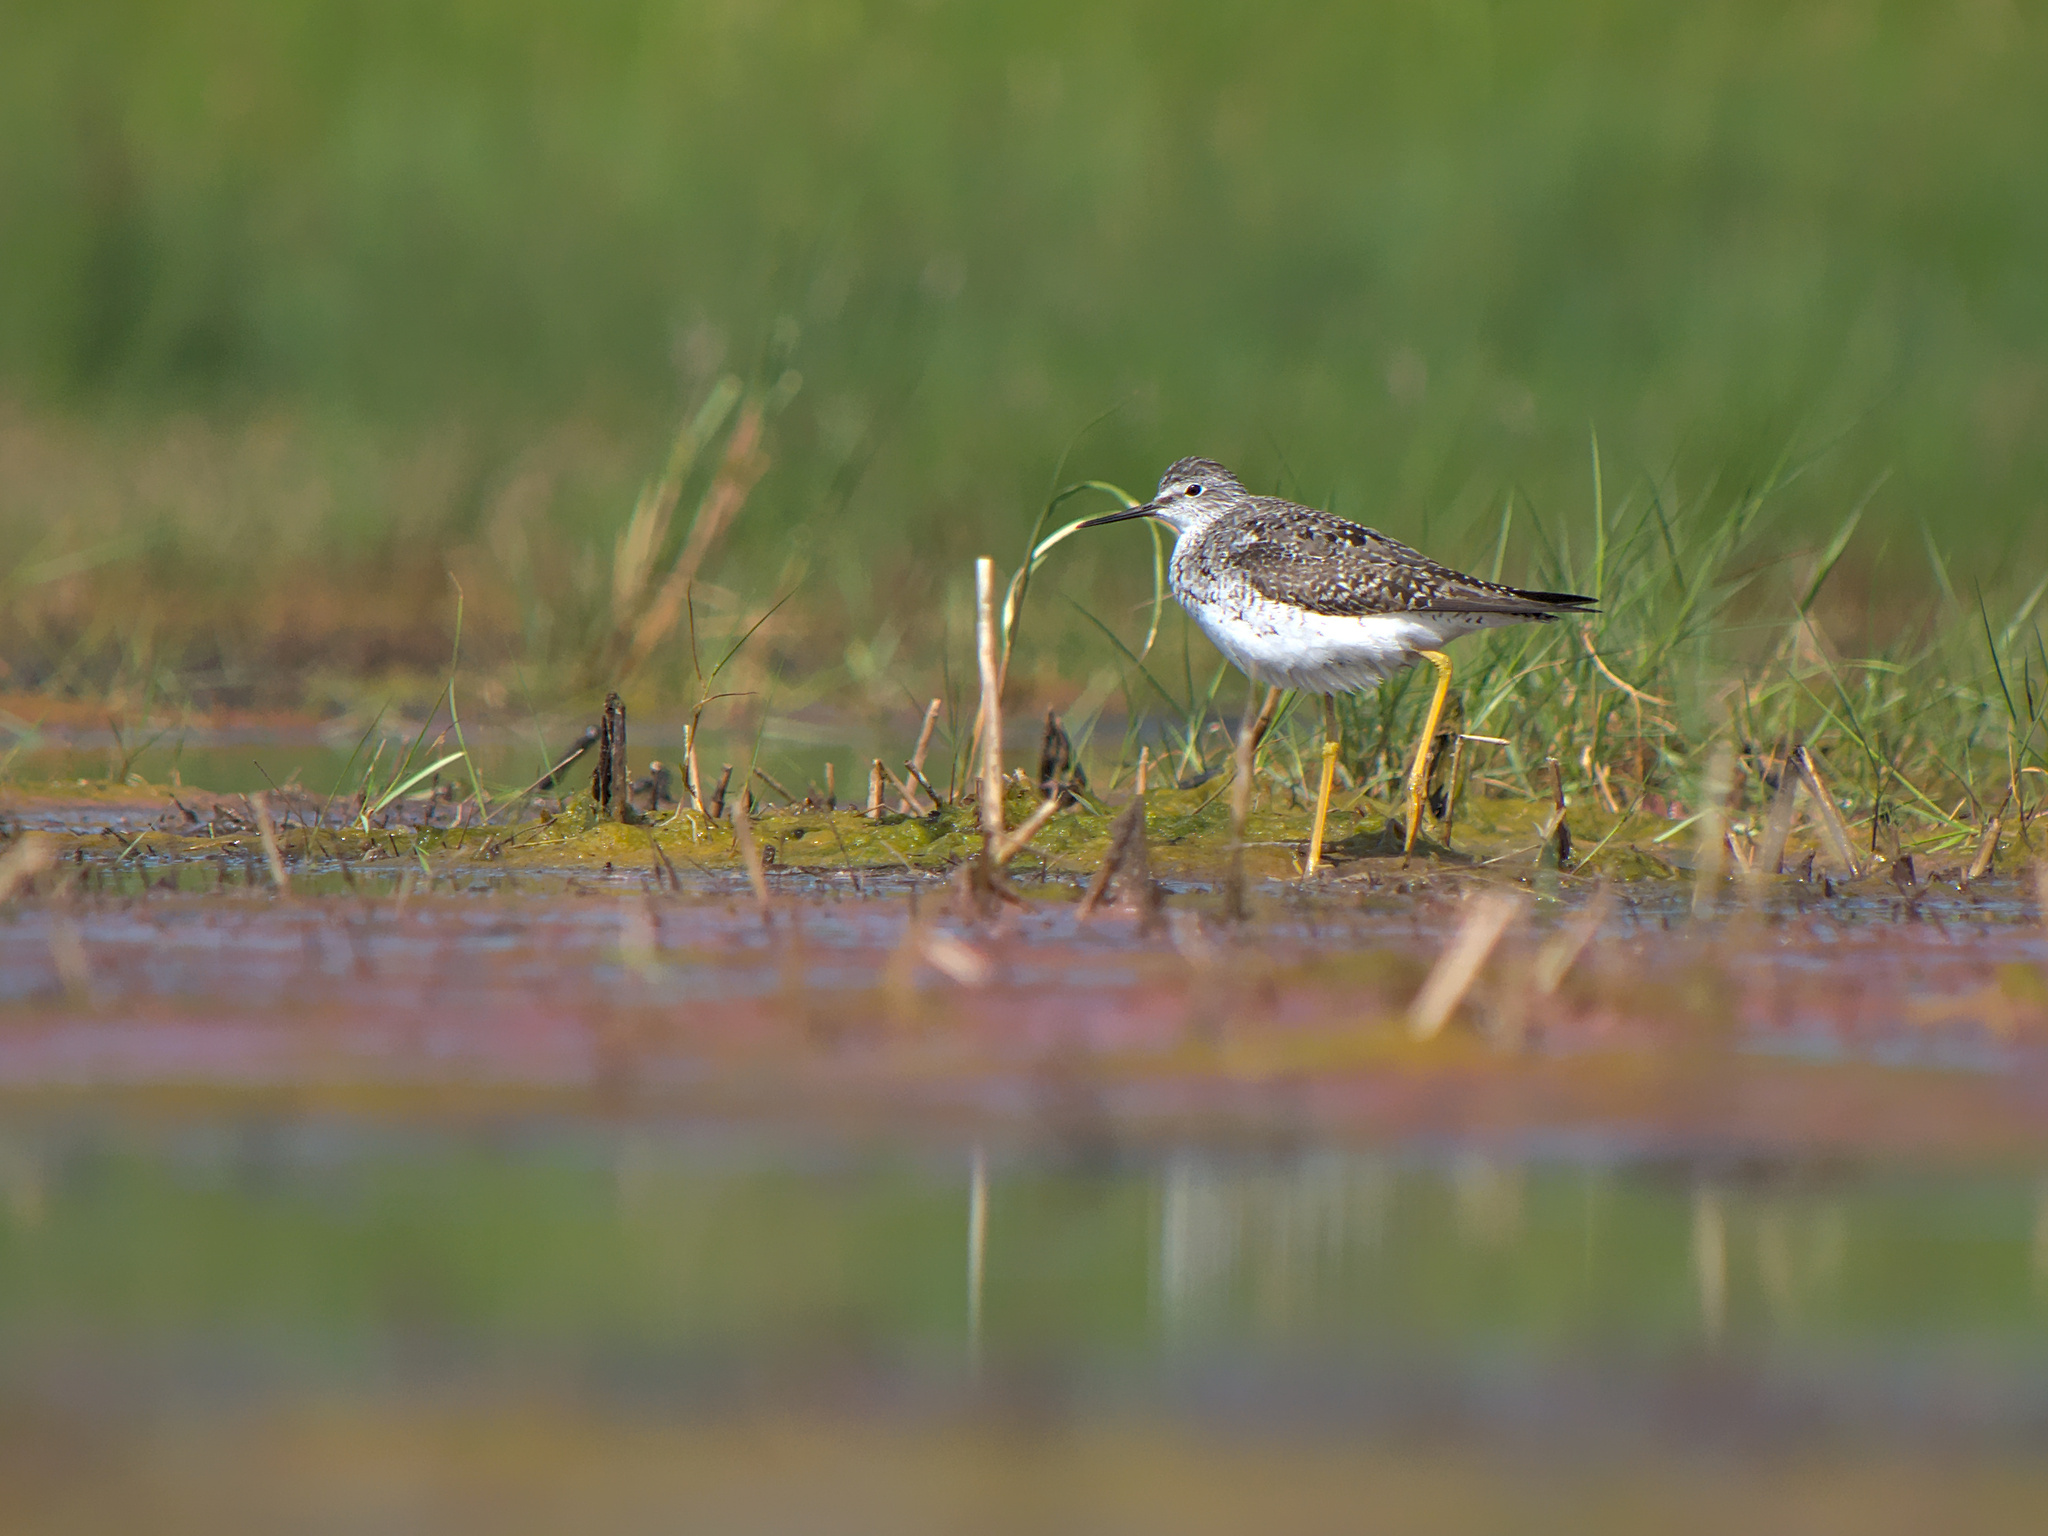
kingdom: Animalia
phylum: Chordata
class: Aves
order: Charadriiformes
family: Scolopacidae
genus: Tringa
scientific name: Tringa flavipes
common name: Lesser yellowlegs
